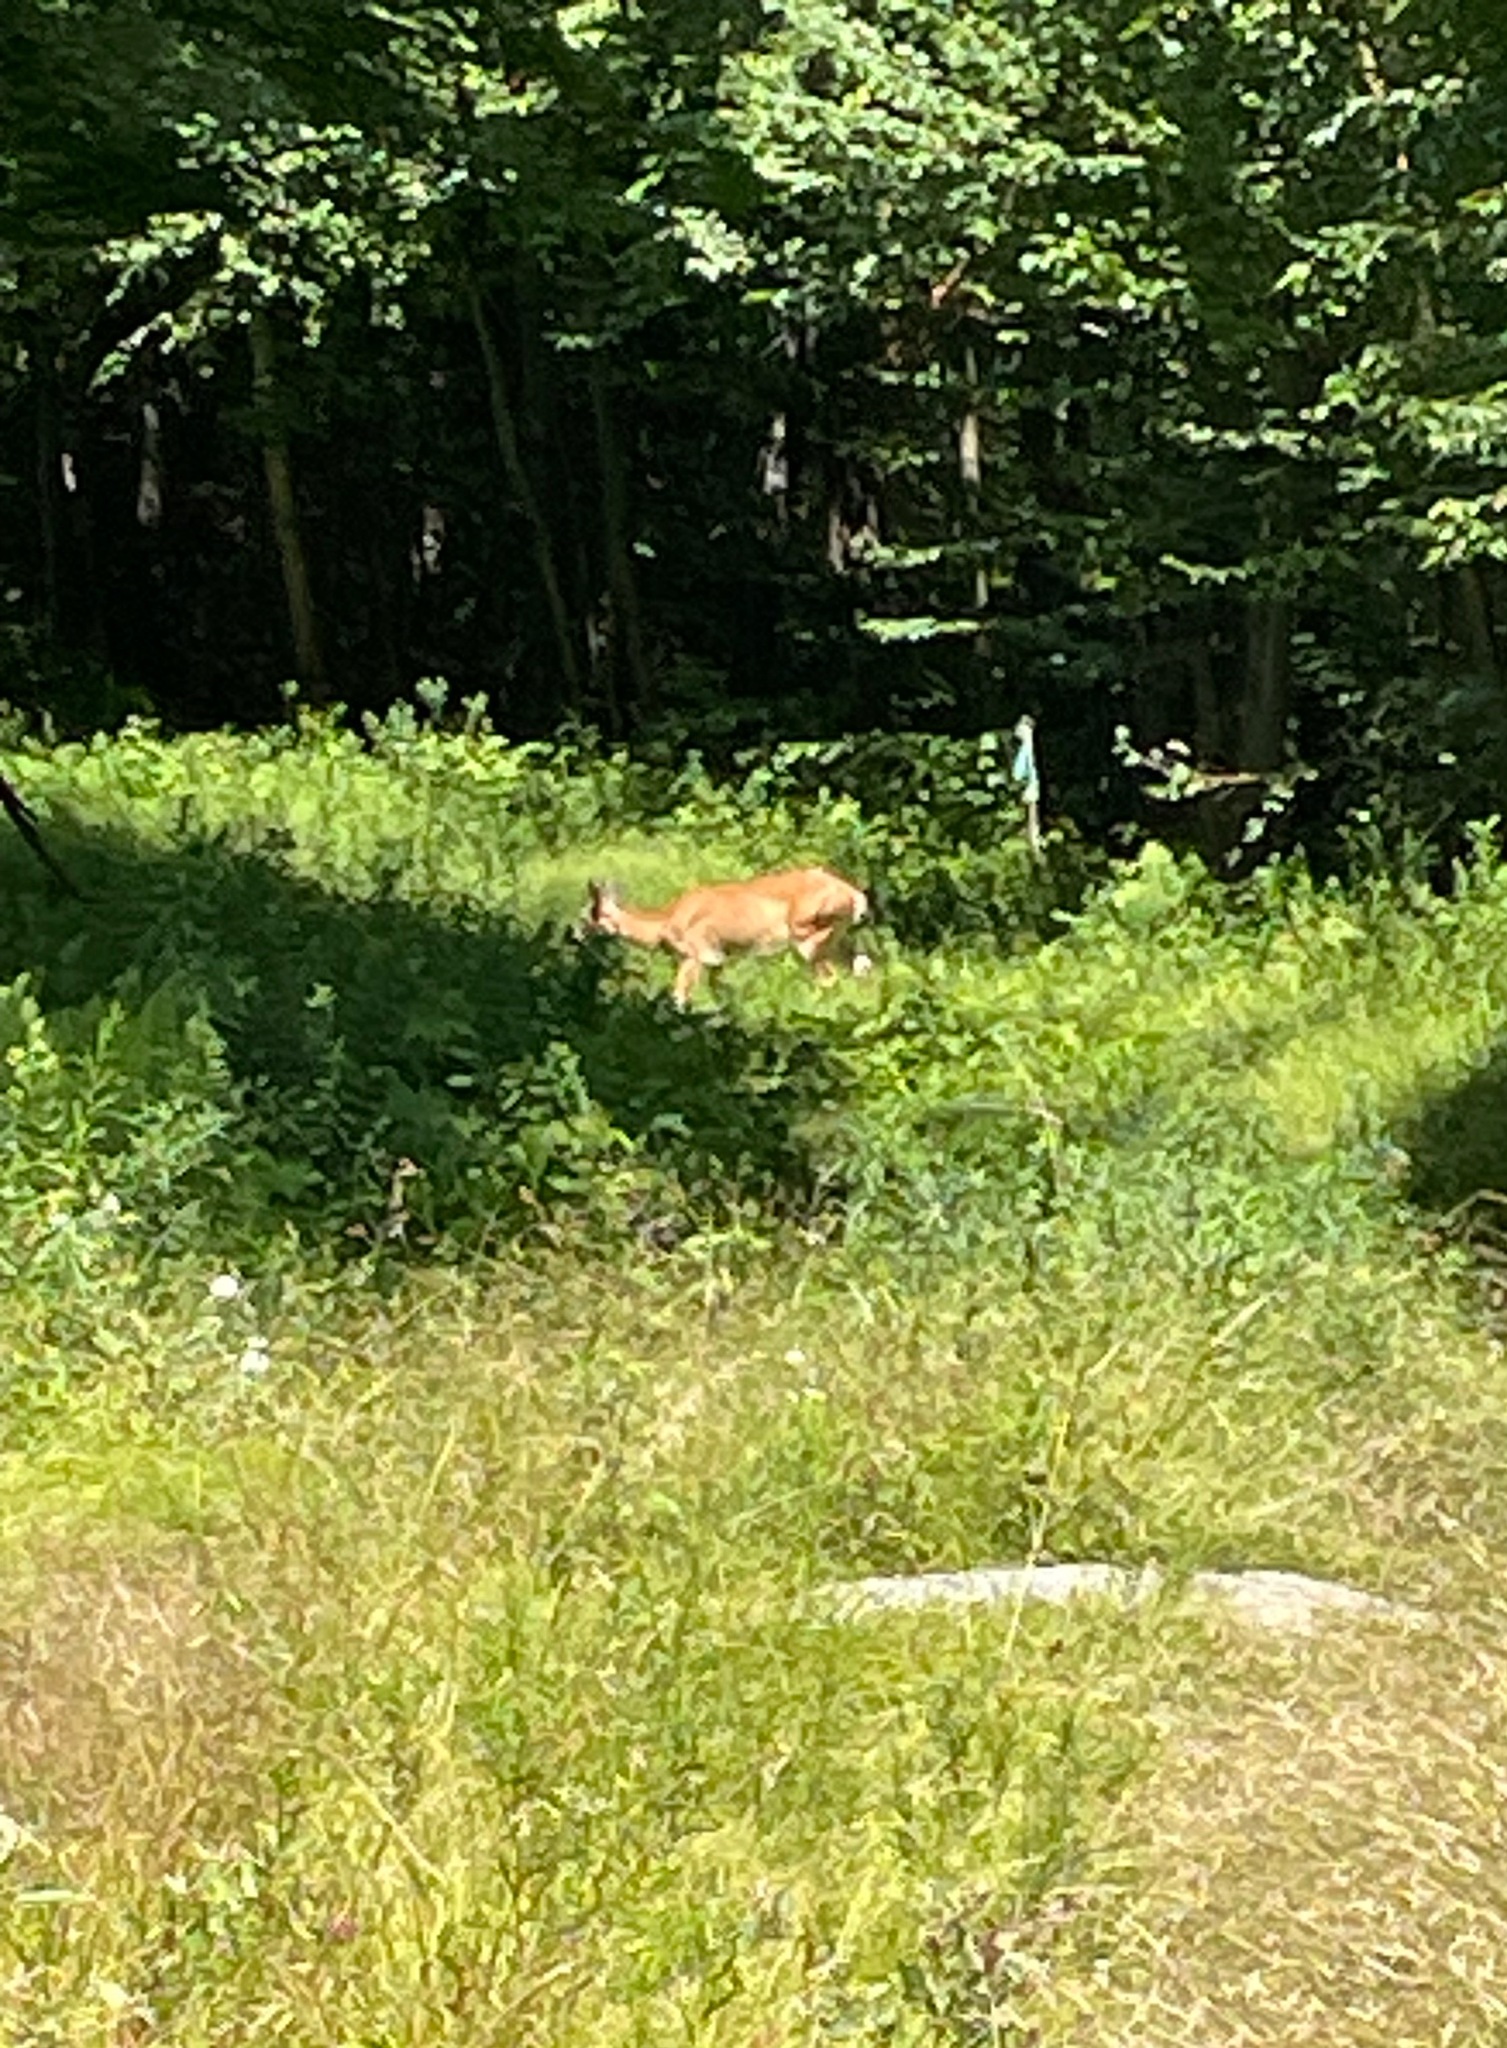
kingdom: Animalia
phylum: Chordata
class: Mammalia
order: Artiodactyla
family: Cervidae
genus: Odocoileus
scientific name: Odocoileus virginianus
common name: White-tailed deer
